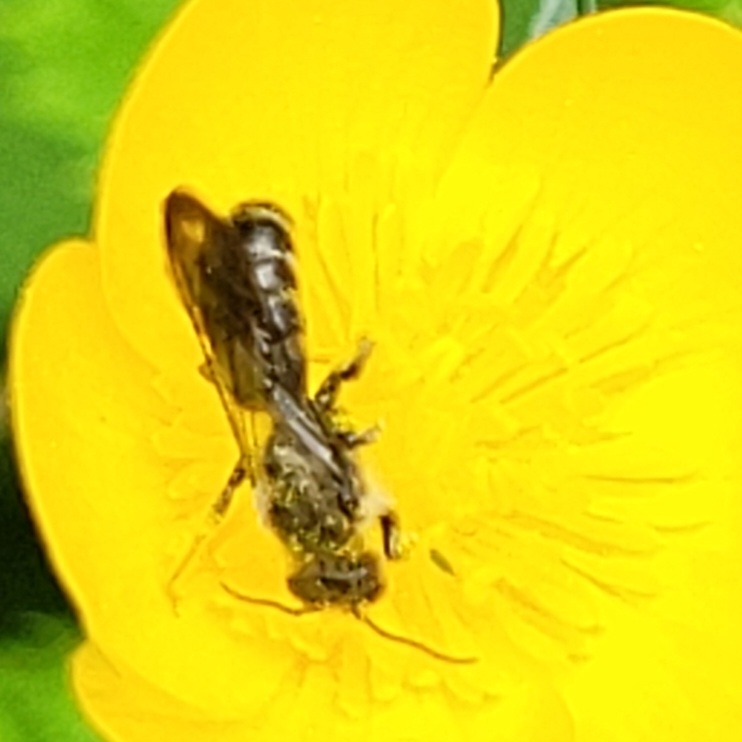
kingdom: Animalia
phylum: Arthropoda
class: Insecta
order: Hymenoptera
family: Megachilidae
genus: Chelostoma
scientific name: Chelostoma florisomne
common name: Sleepy carpenter bee
